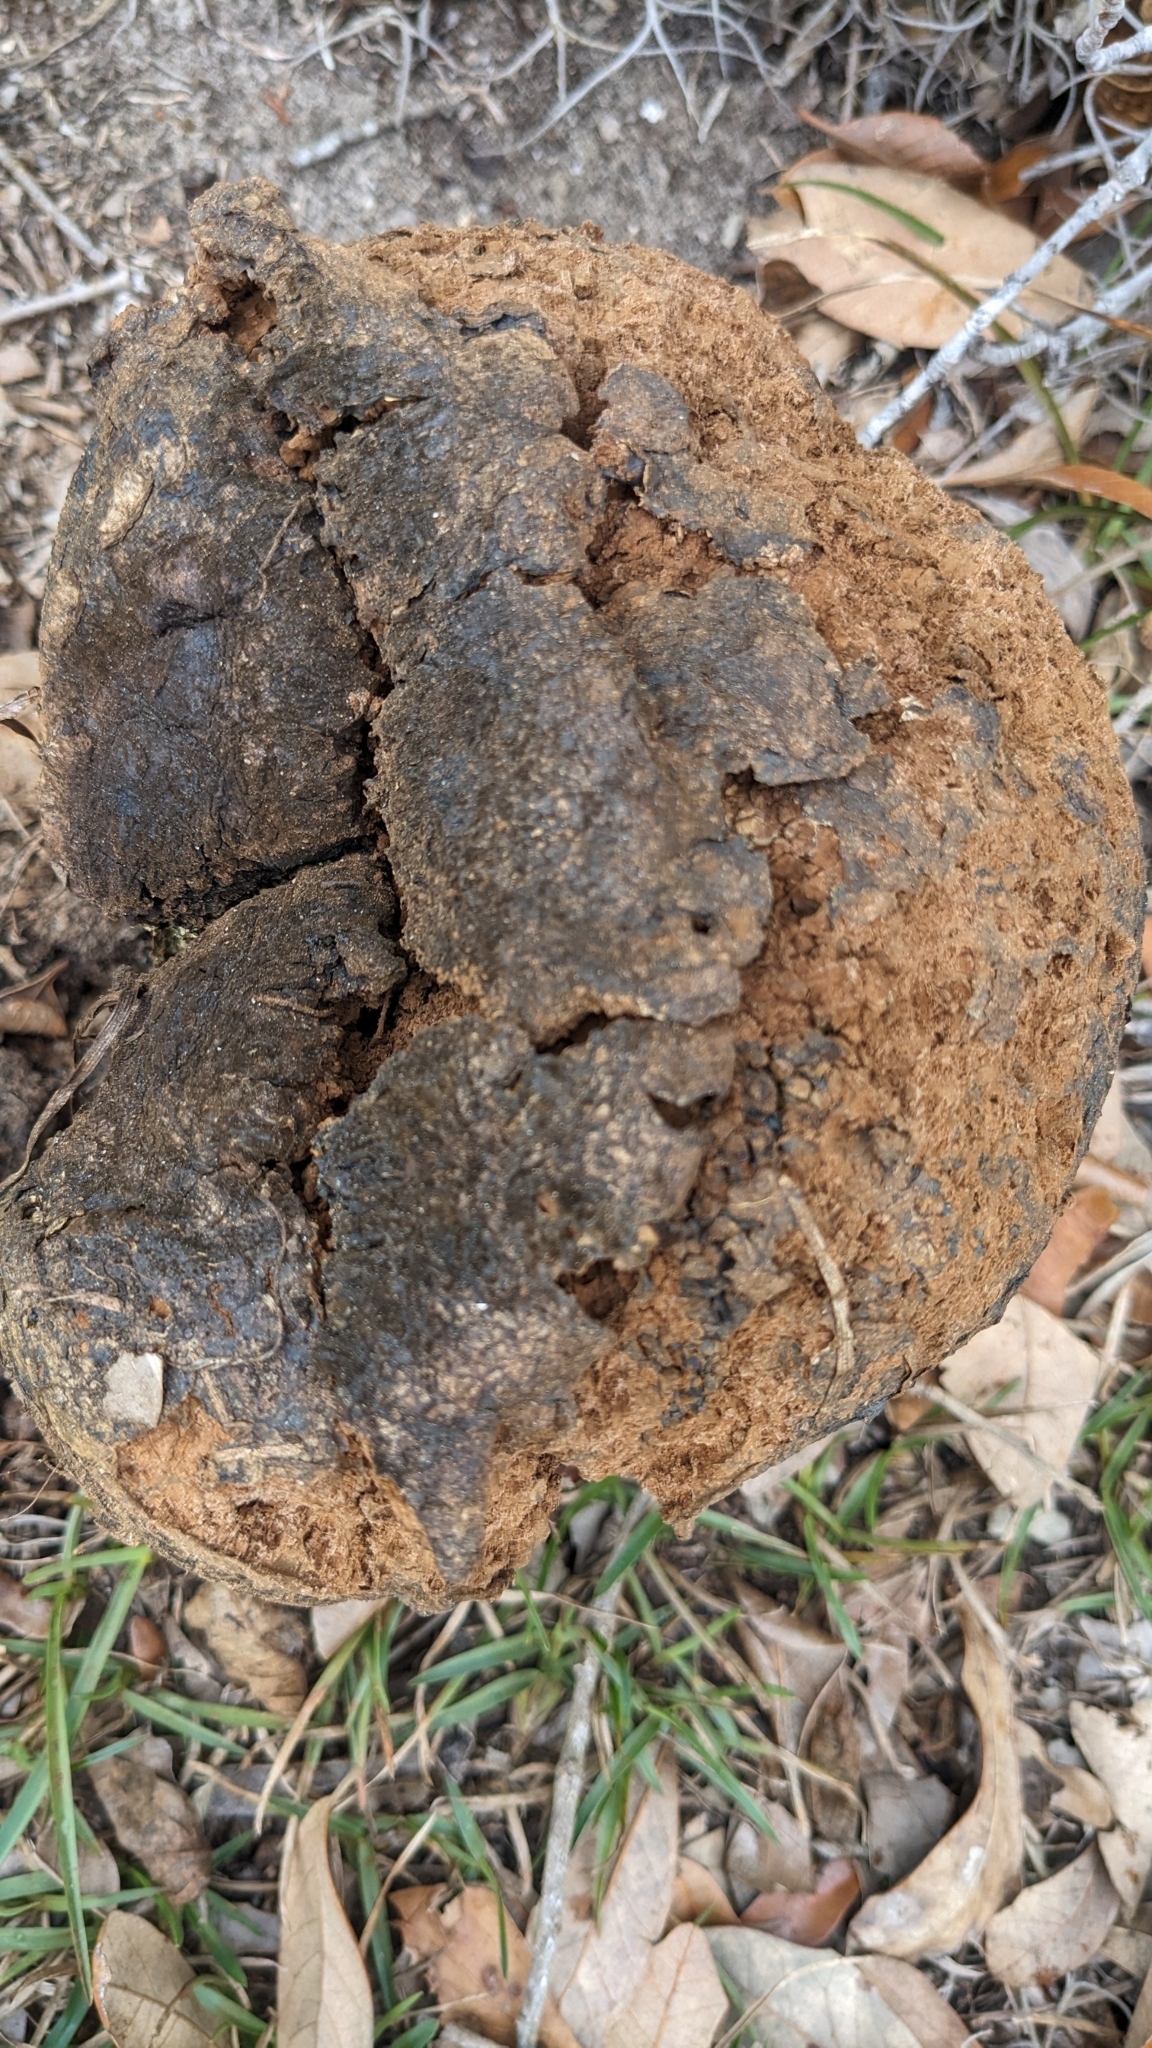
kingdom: Fungi
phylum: Basidiomycota
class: Agaricomycetes
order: Boletales
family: Sclerodermataceae
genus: Pisolithus
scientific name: Pisolithus arenarius
